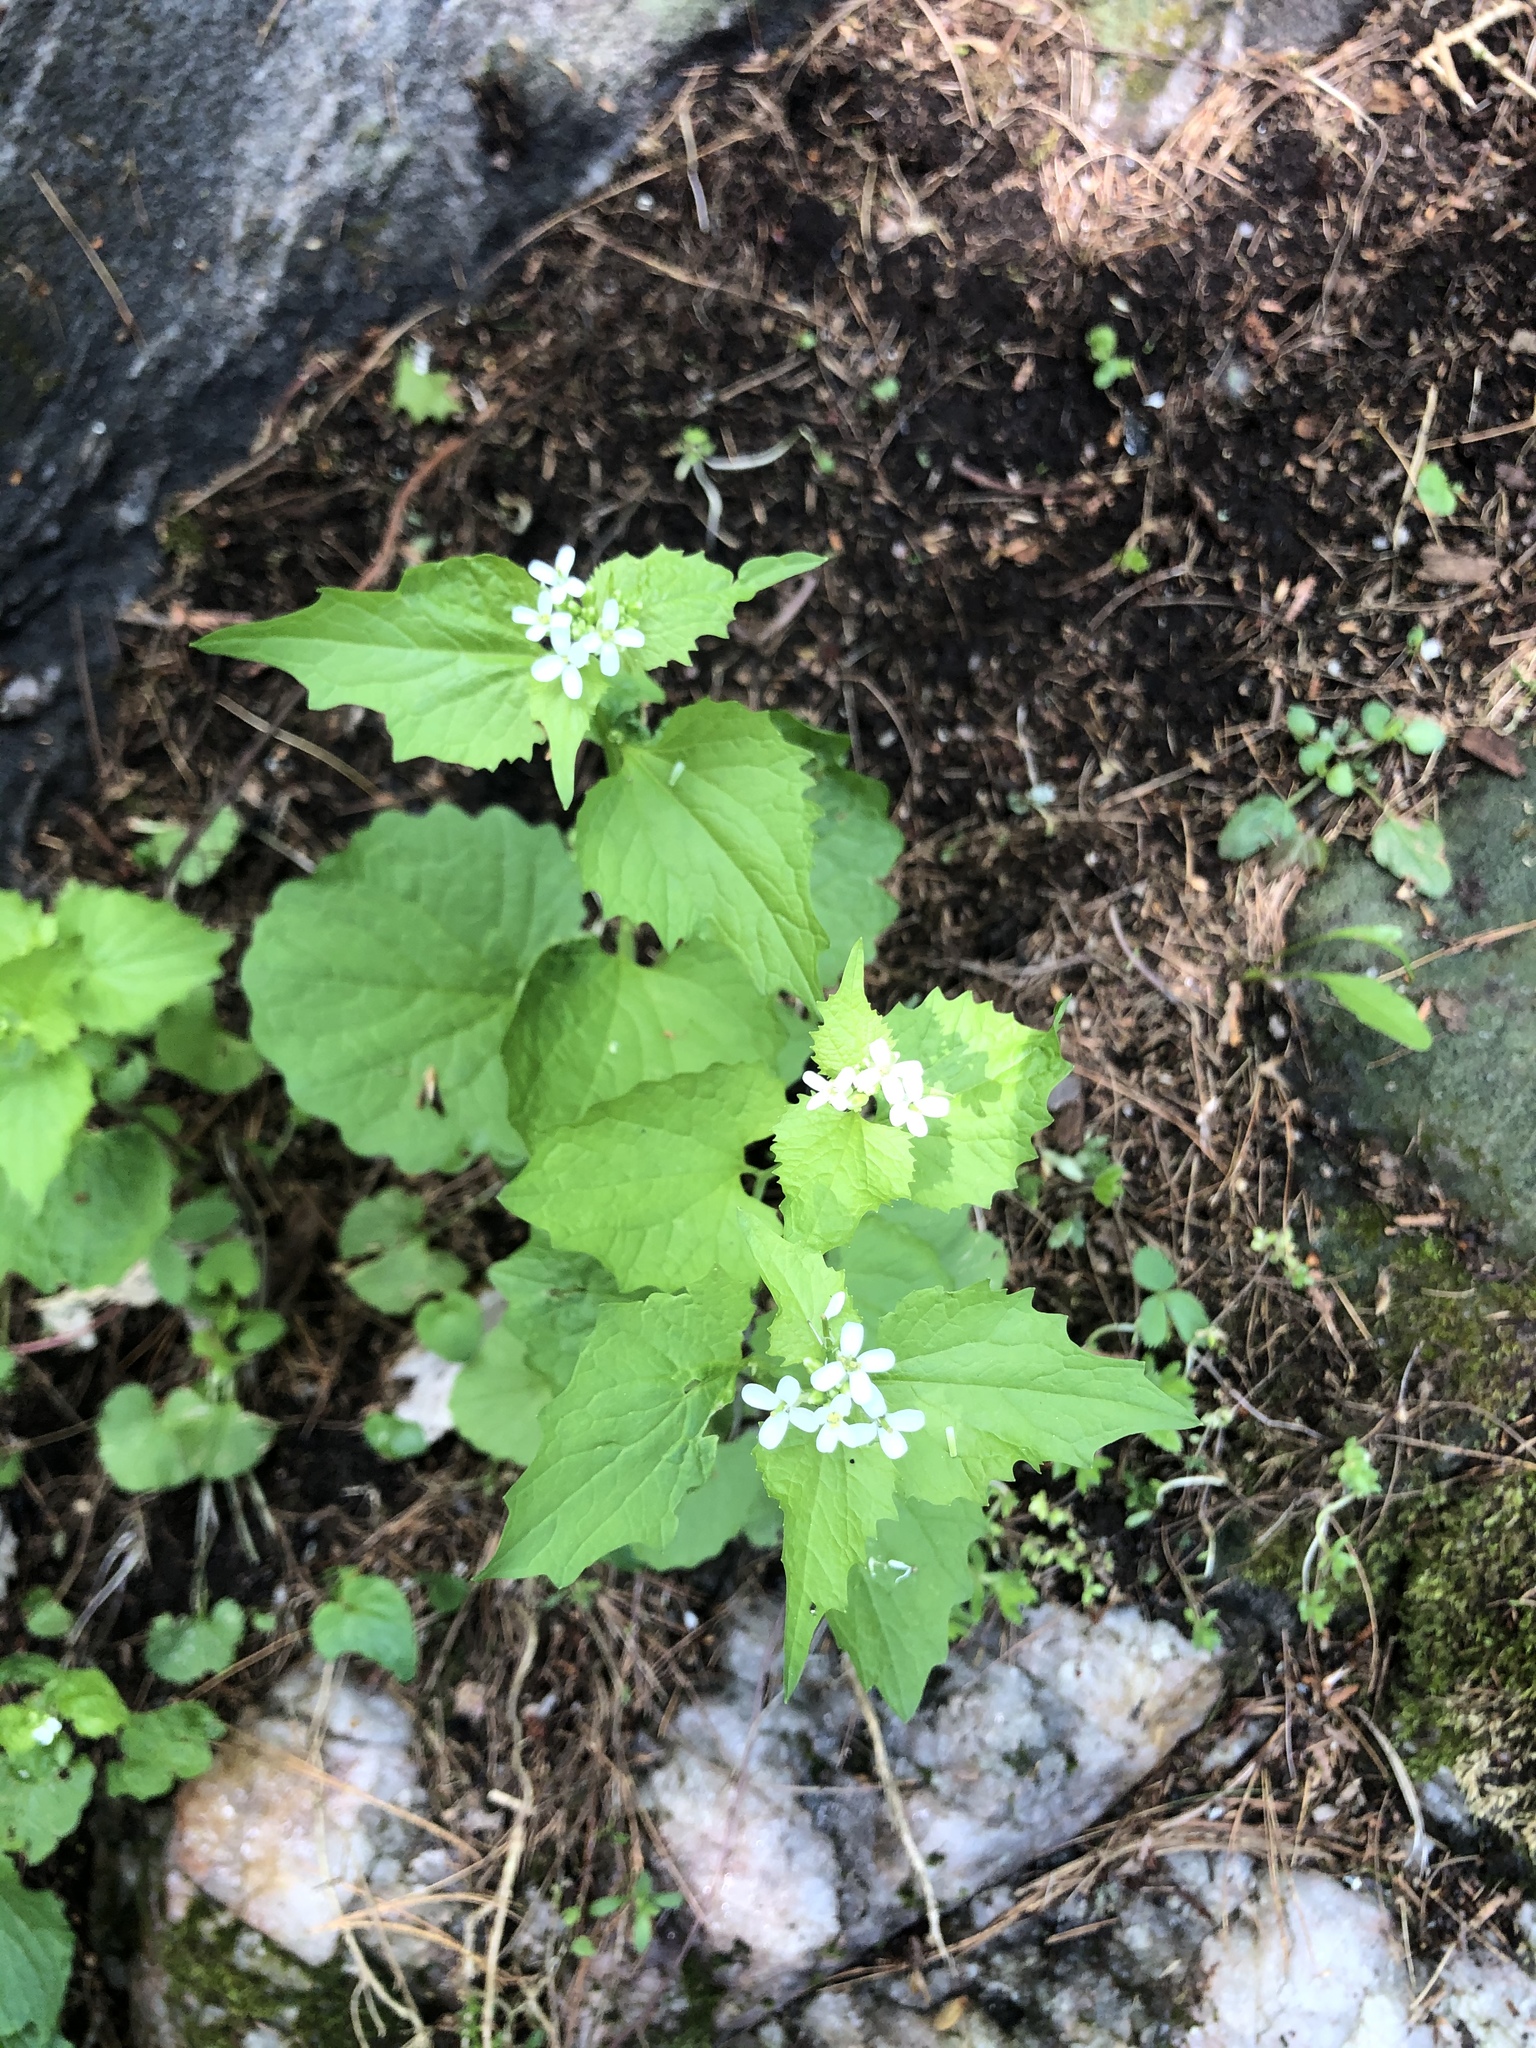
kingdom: Plantae
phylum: Tracheophyta
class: Magnoliopsida
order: Brassicales
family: Brassicaceae
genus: Alliaria
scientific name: Alliaria petiolata
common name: Garlic mustard
